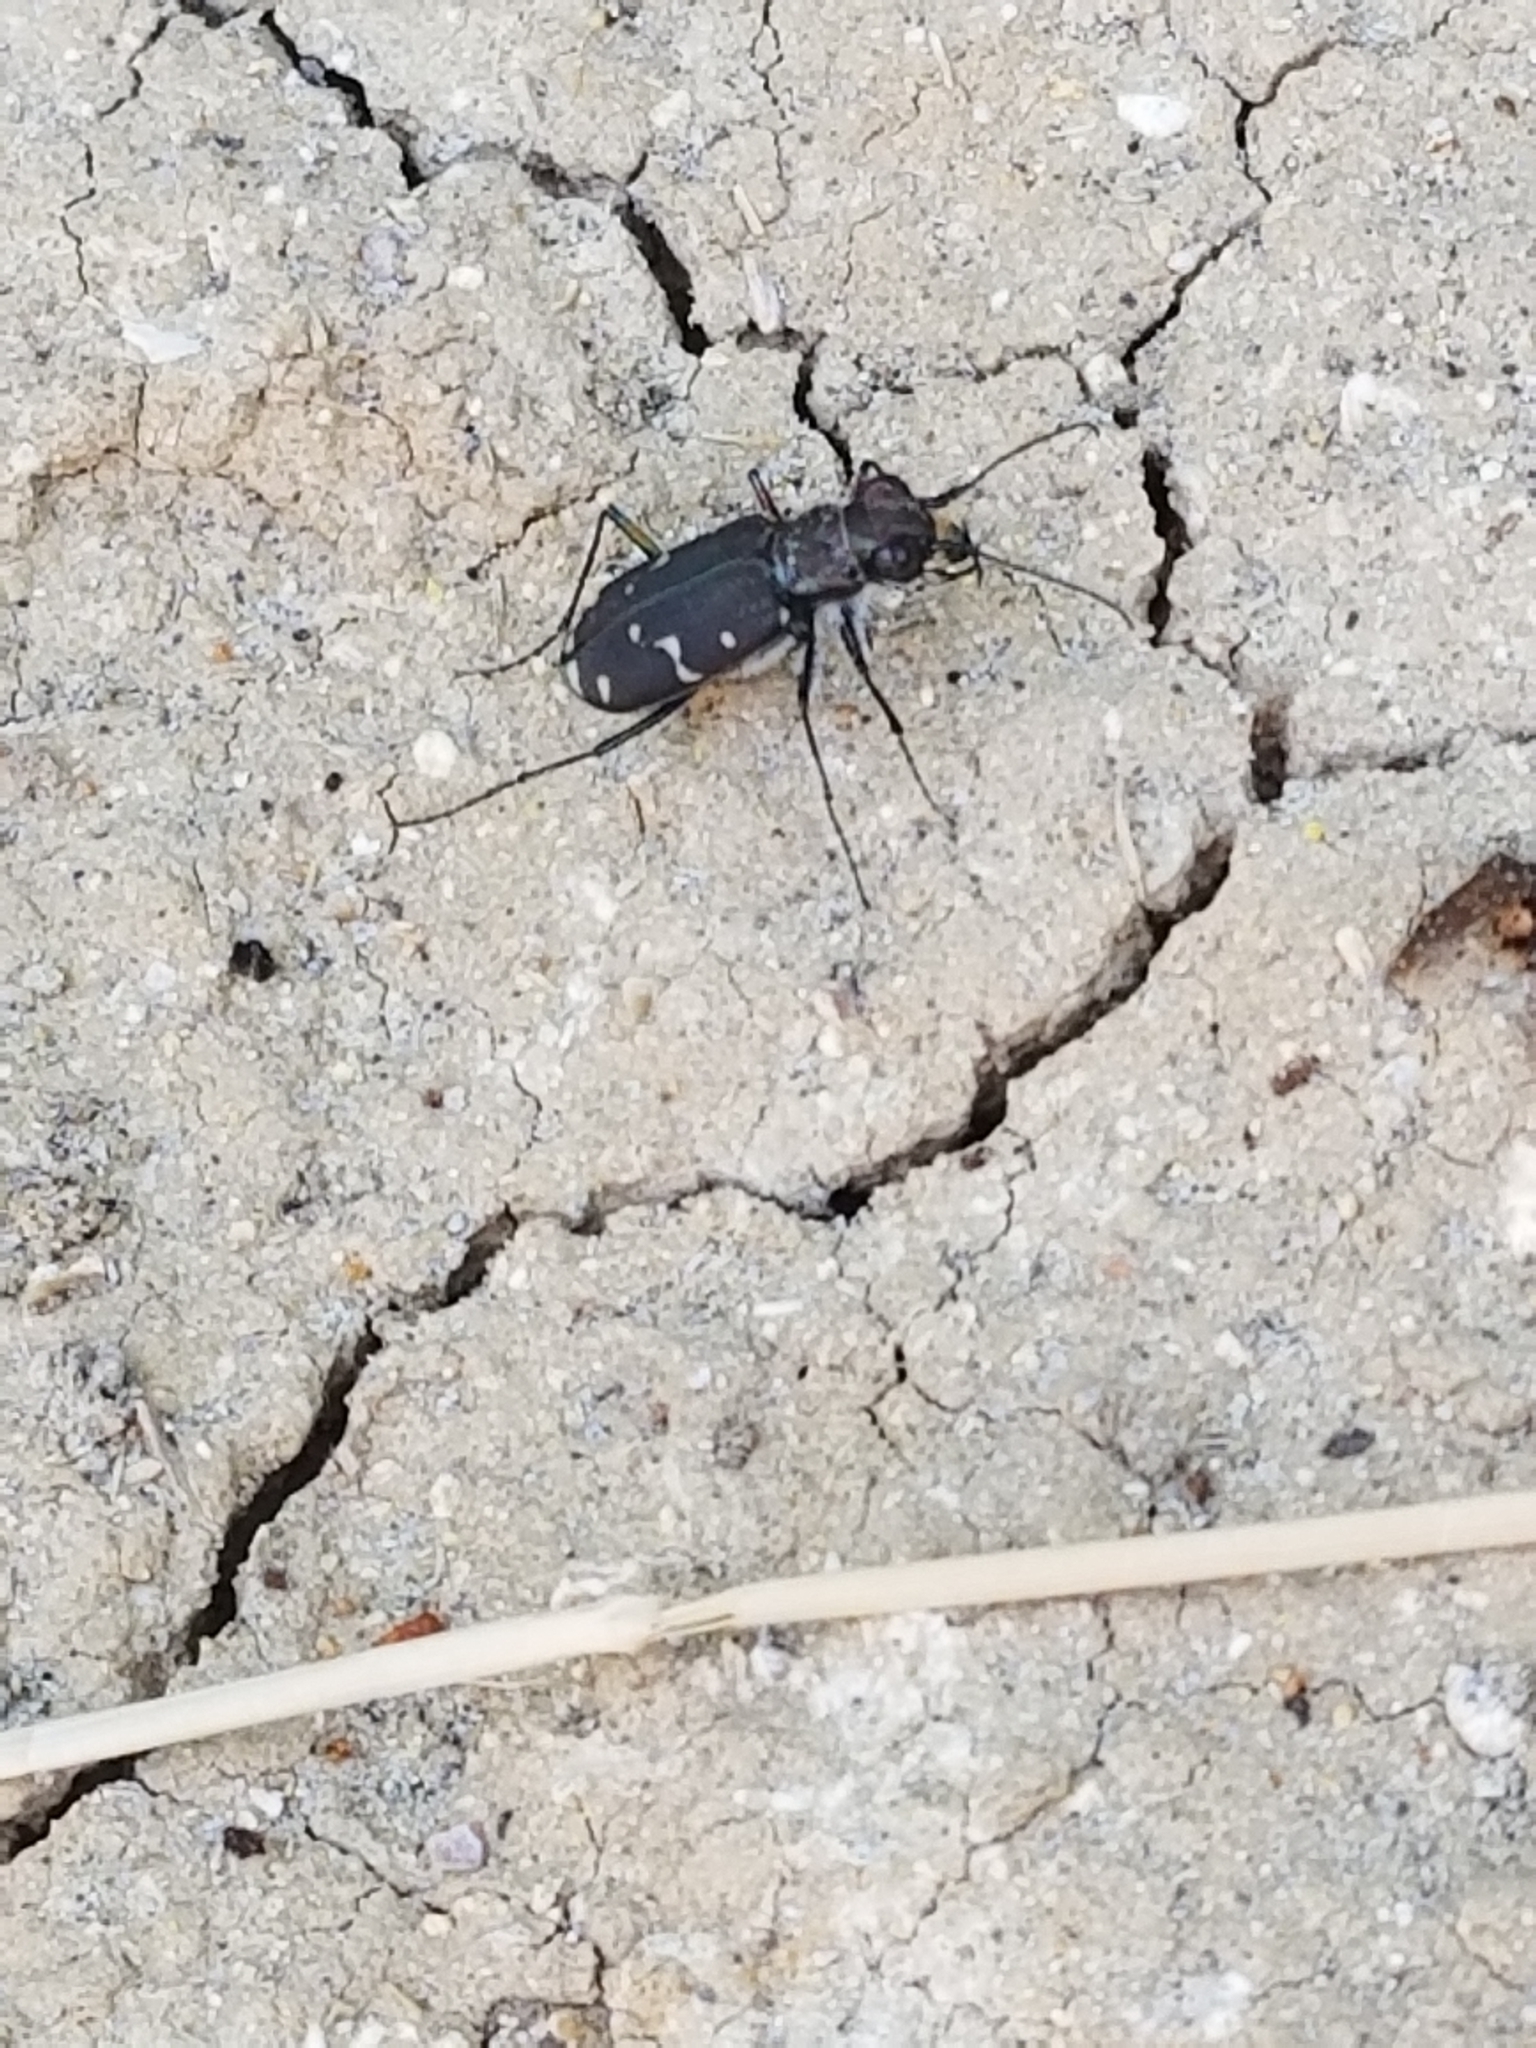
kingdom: Animalia
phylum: Arthropoda
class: Insecta
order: Coleoptera
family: Carabidae
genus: Cicindela
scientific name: Cicindela duodecimguttata
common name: Twelve-spotted tiger beetle
